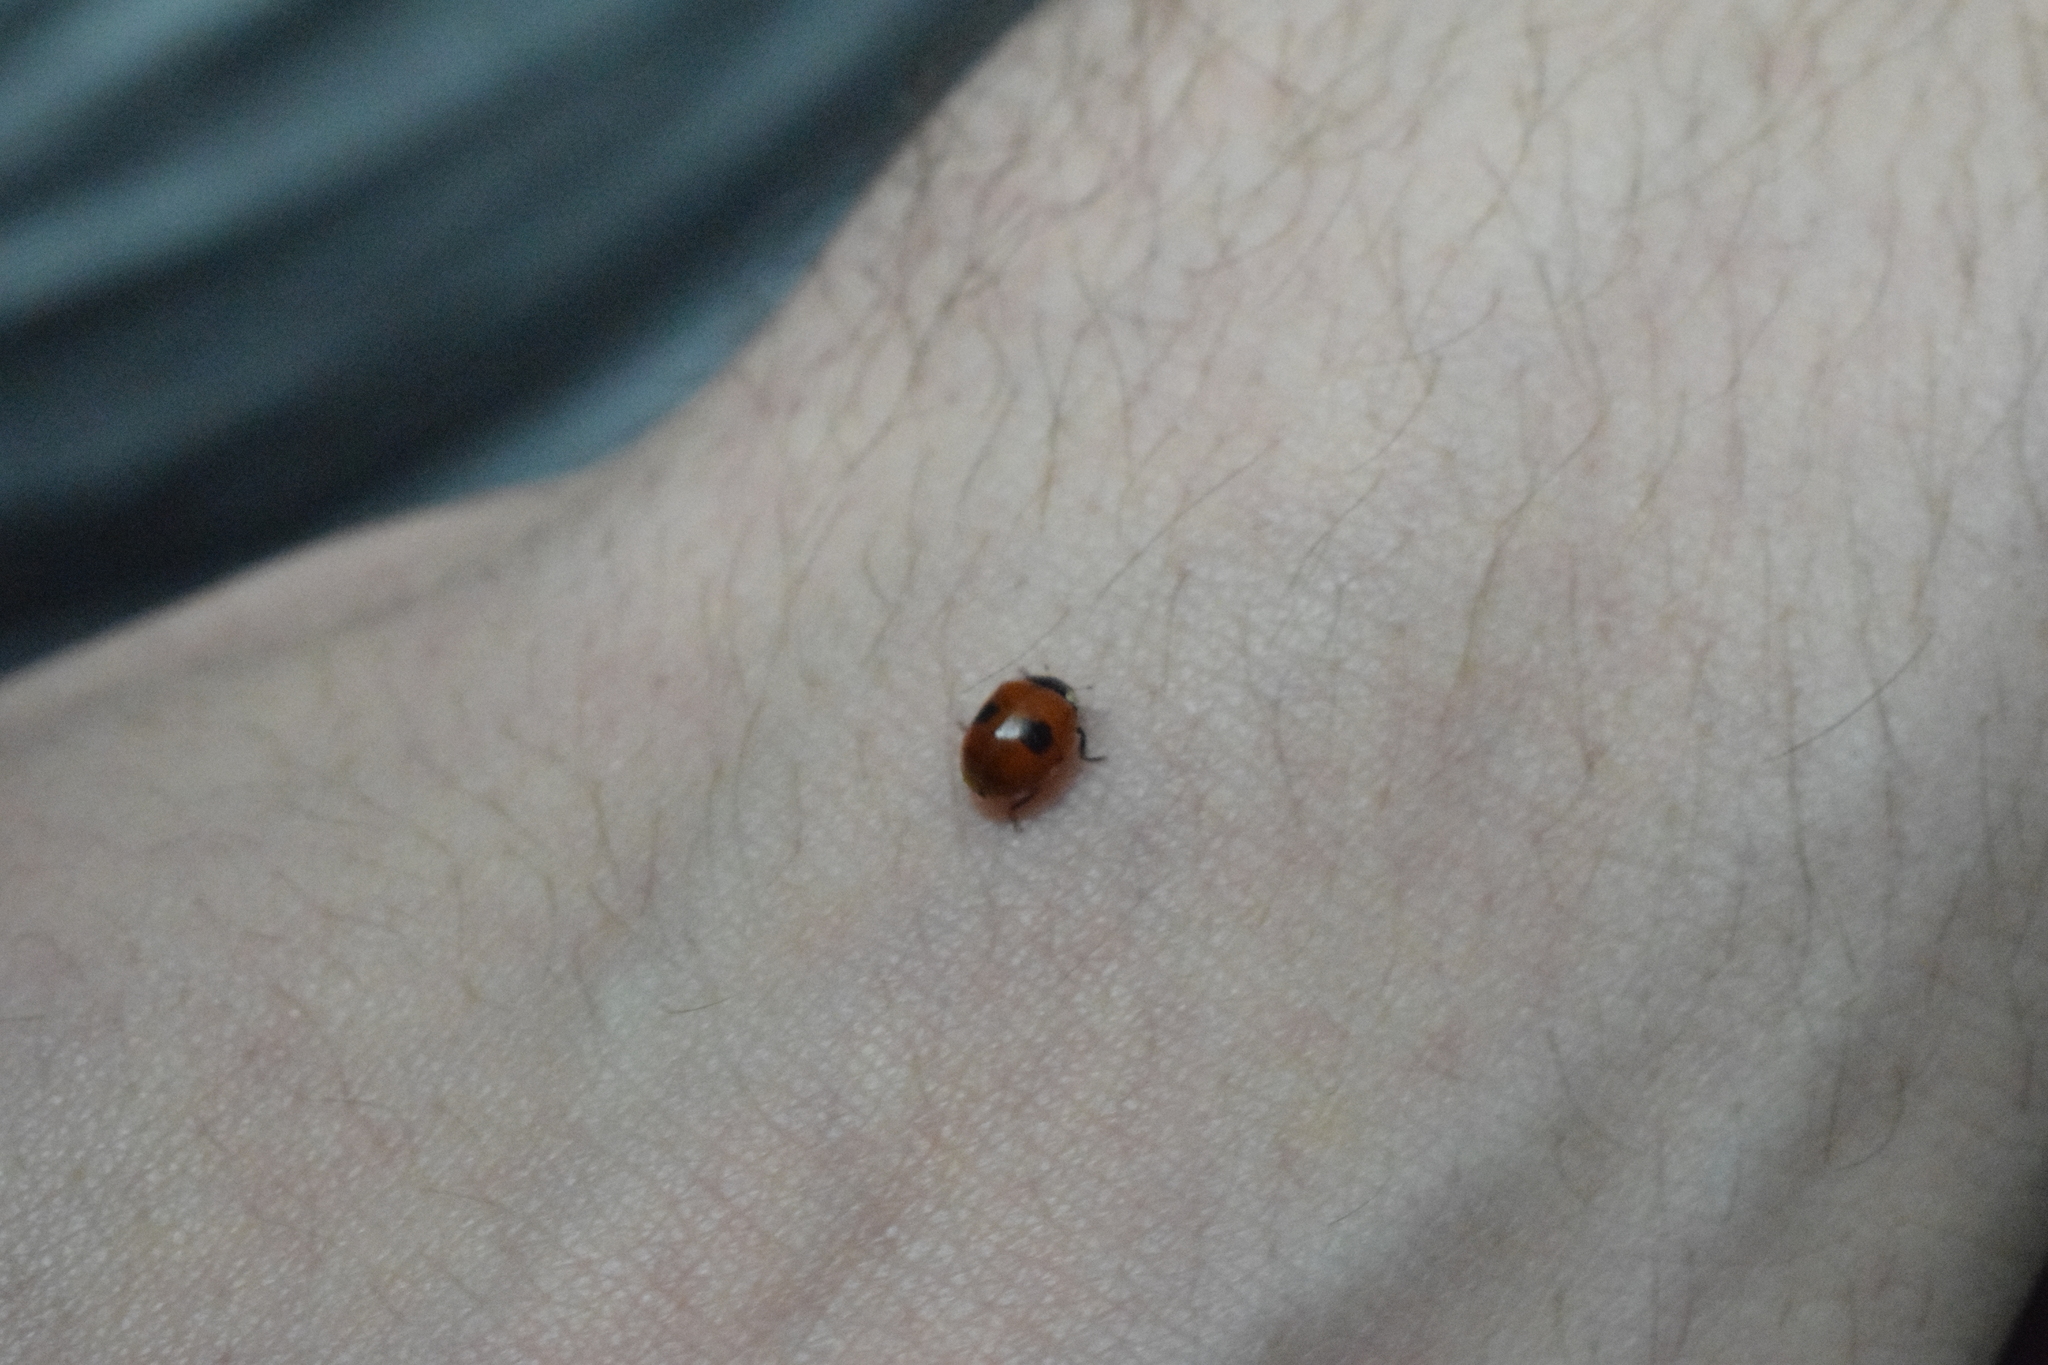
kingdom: Animalia
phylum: Arthropoda
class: Insecta
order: Coleoptera
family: Coccinellidae
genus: Adalia
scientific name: Adalia bipunctata
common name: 2-spot ladybird
